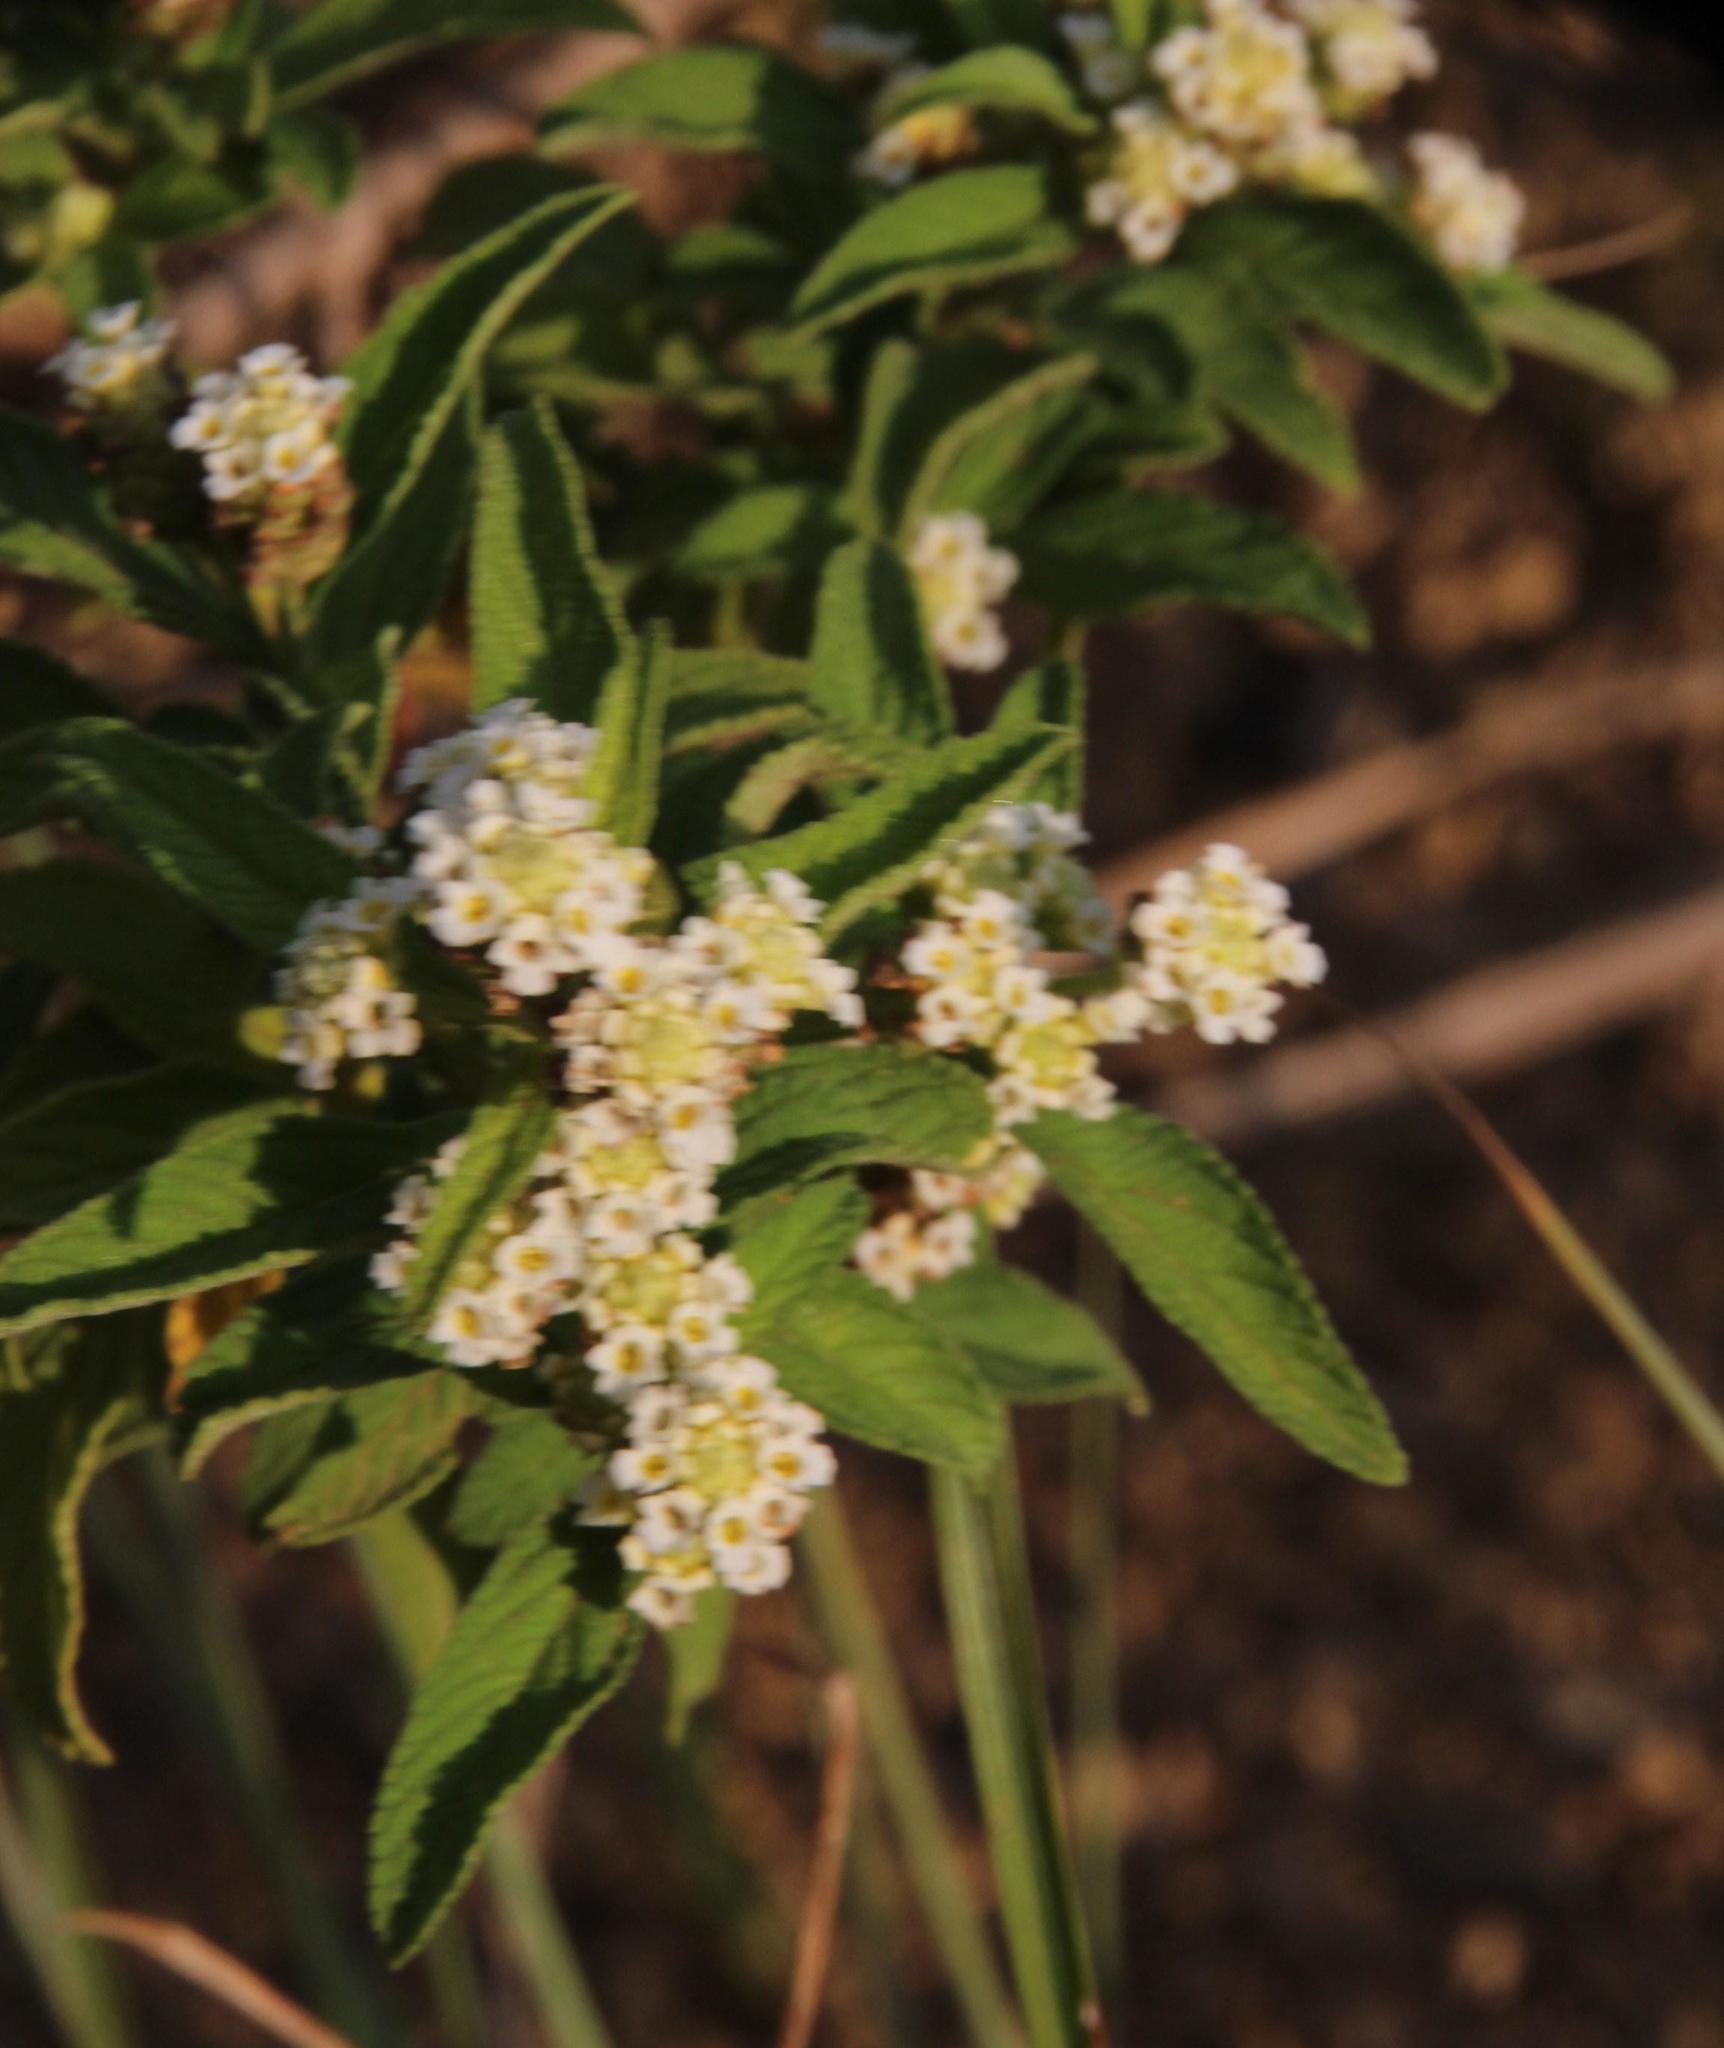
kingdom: Plantae
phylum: Tracheophyta
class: Magnoliopsida
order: Lamiales
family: Verbenaceae
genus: Lippia
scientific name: Lippia javanica
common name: Lemonbush
